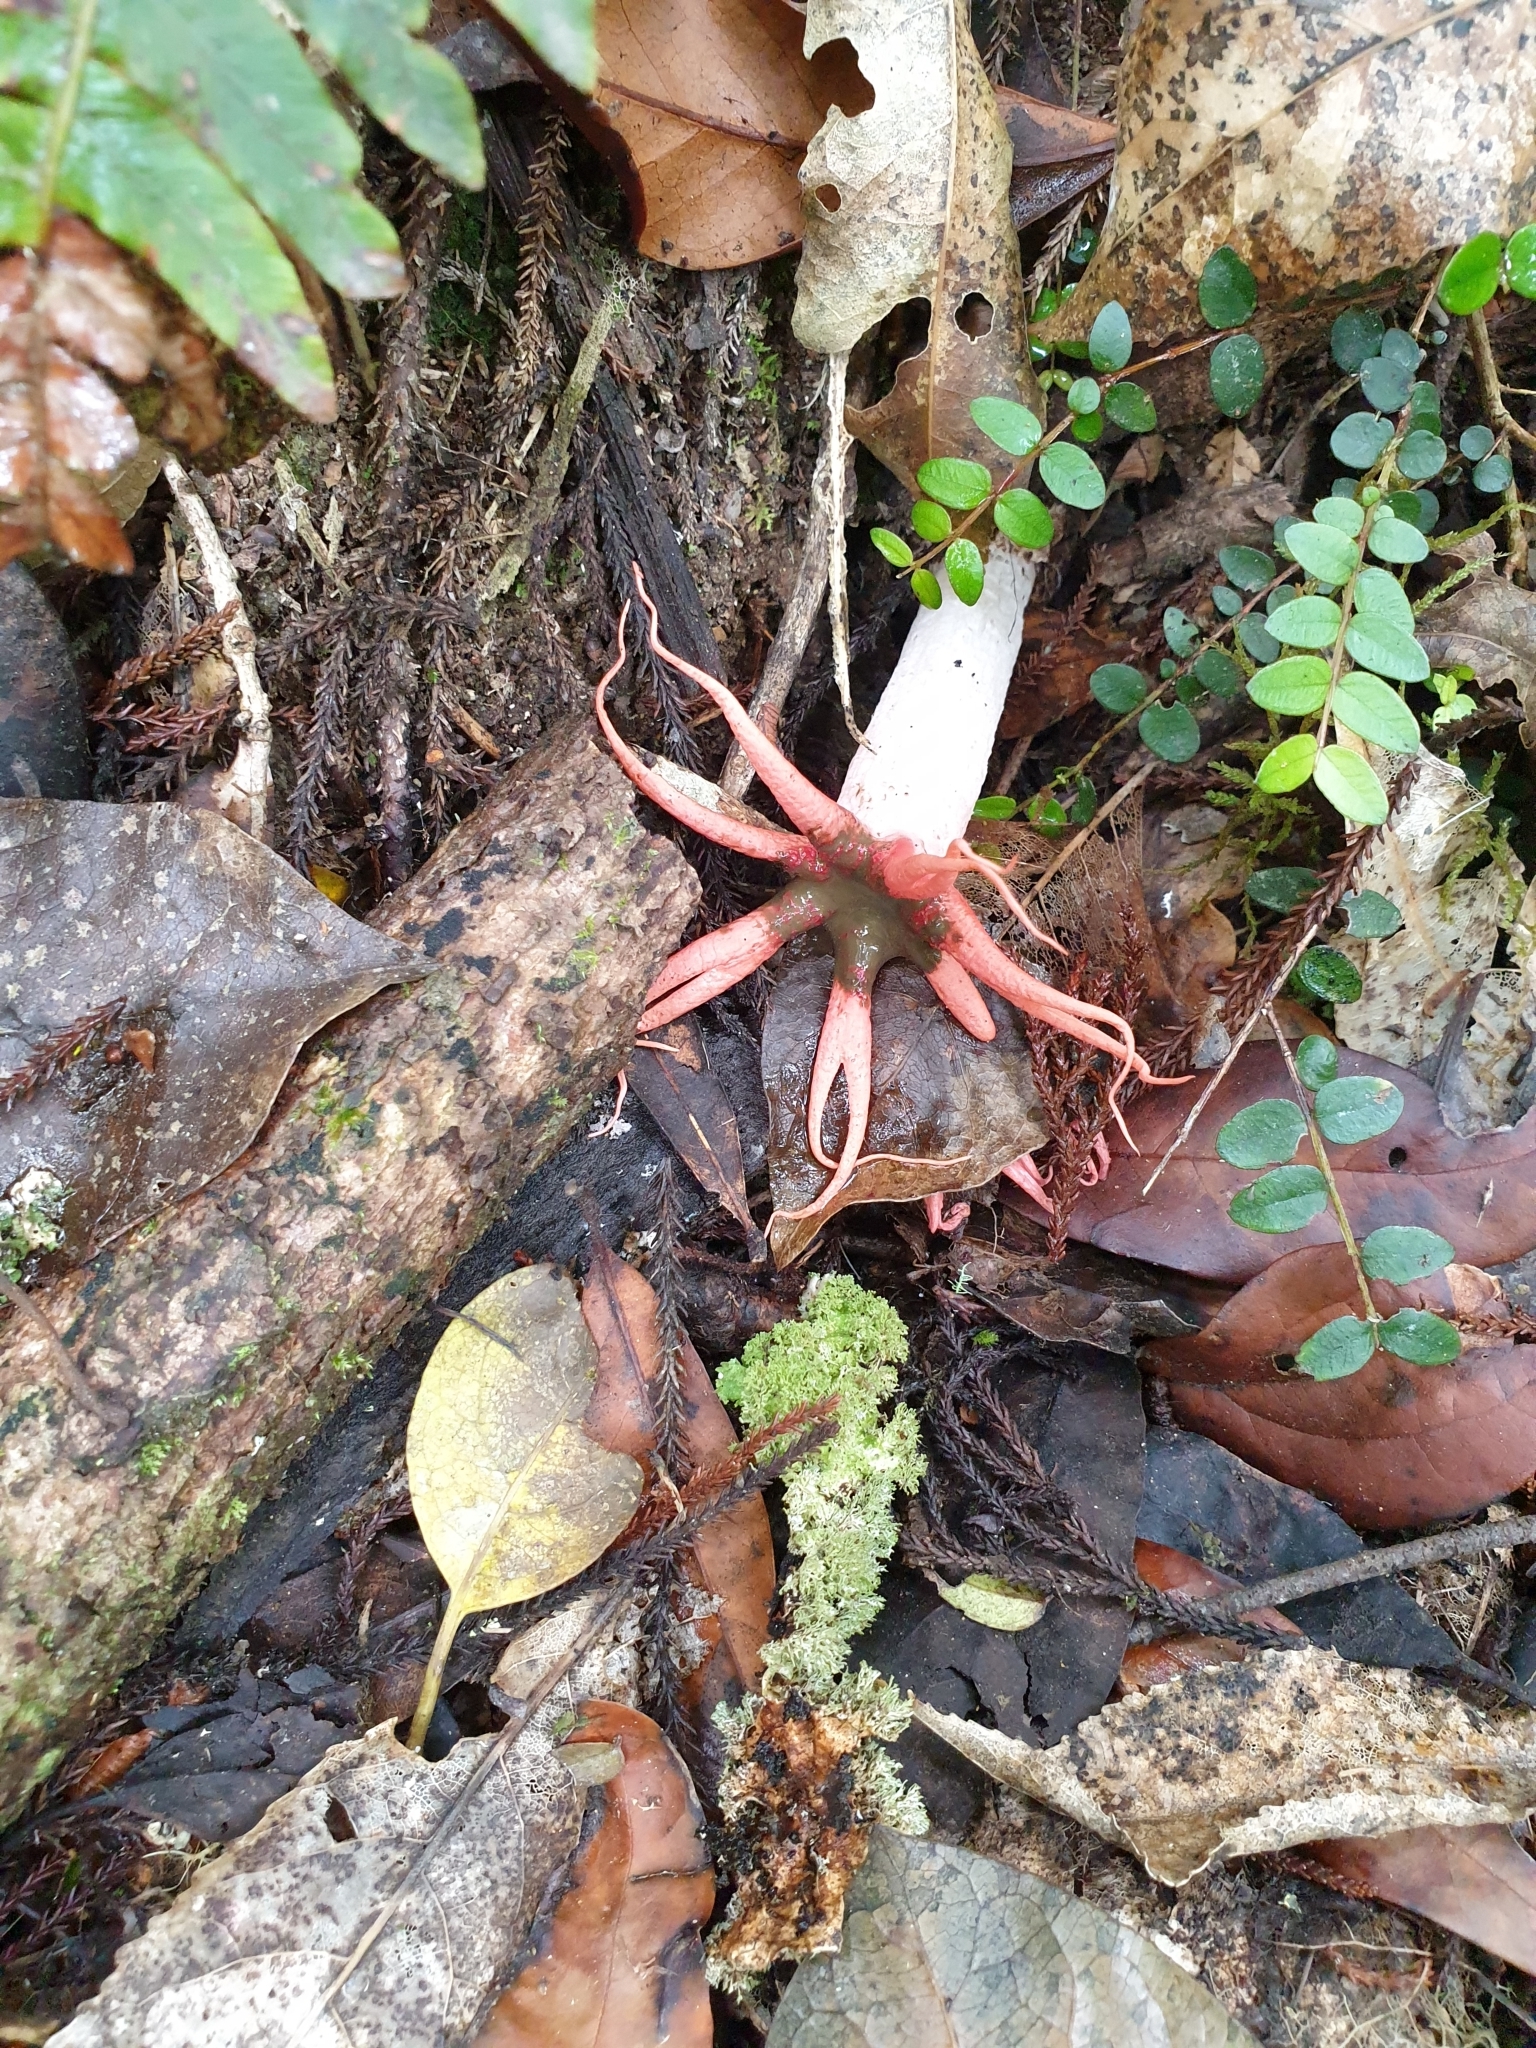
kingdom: Fungi
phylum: Basidiomycota
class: Agaricomycetes
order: Phallales
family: Phallaceae
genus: Aseroe
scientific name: Aseroe rubra
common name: Starfish fungus
